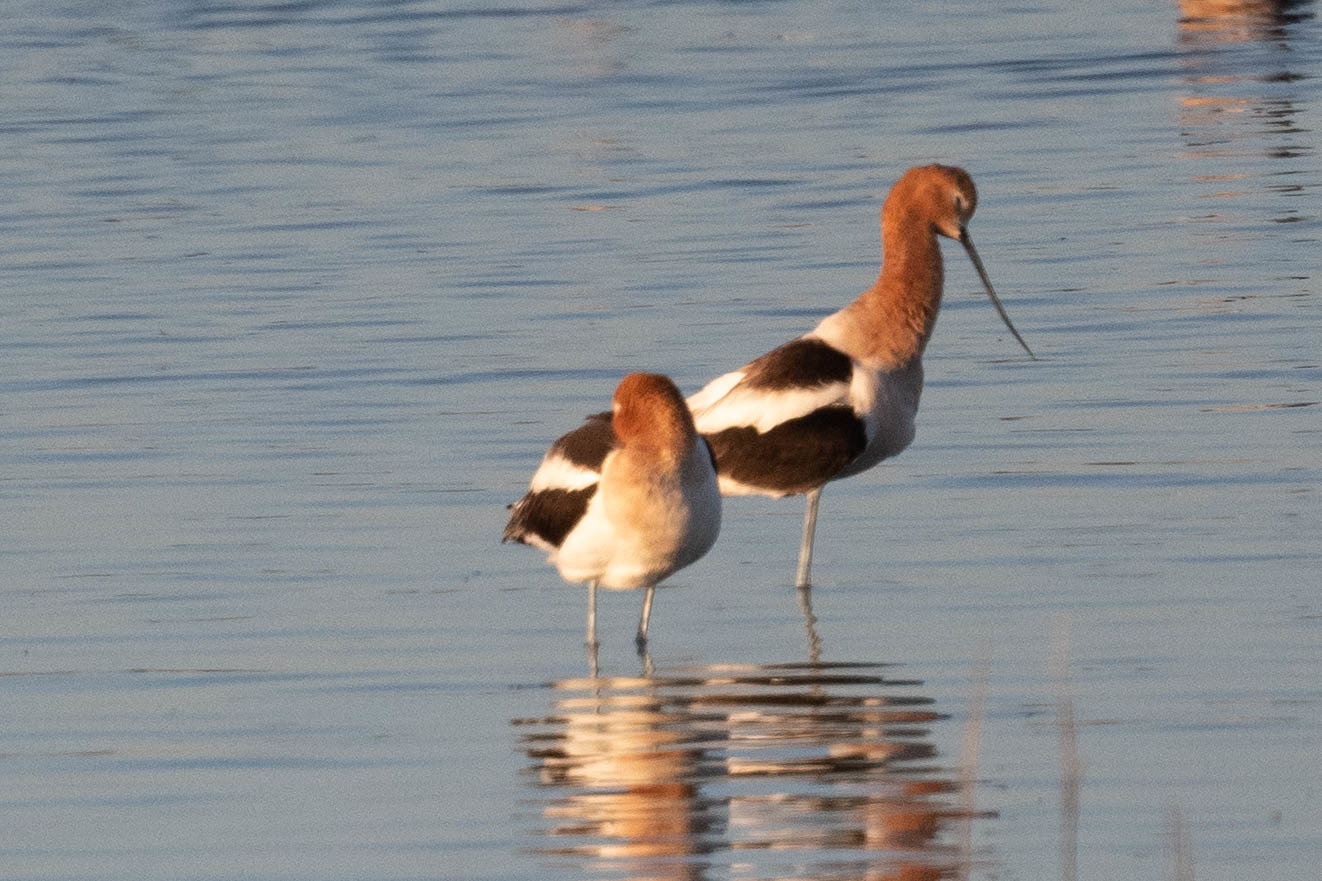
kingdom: Animalia
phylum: Chordata
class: Aves
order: Charadriiformes
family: Recurvirostridae
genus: Recurvirostra
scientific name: Recurvirostra americana
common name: American avocet
